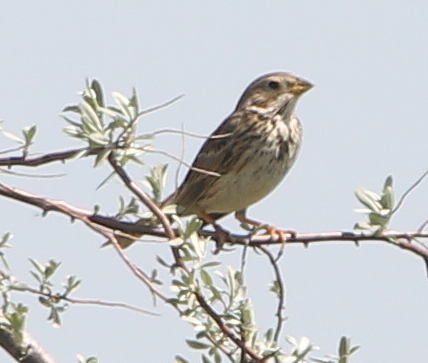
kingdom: Animalia
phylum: Chordata
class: Aves
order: Passeriformes
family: Emberizidae
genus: Emberiza
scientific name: Emberiza calandra
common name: Corn bunting
